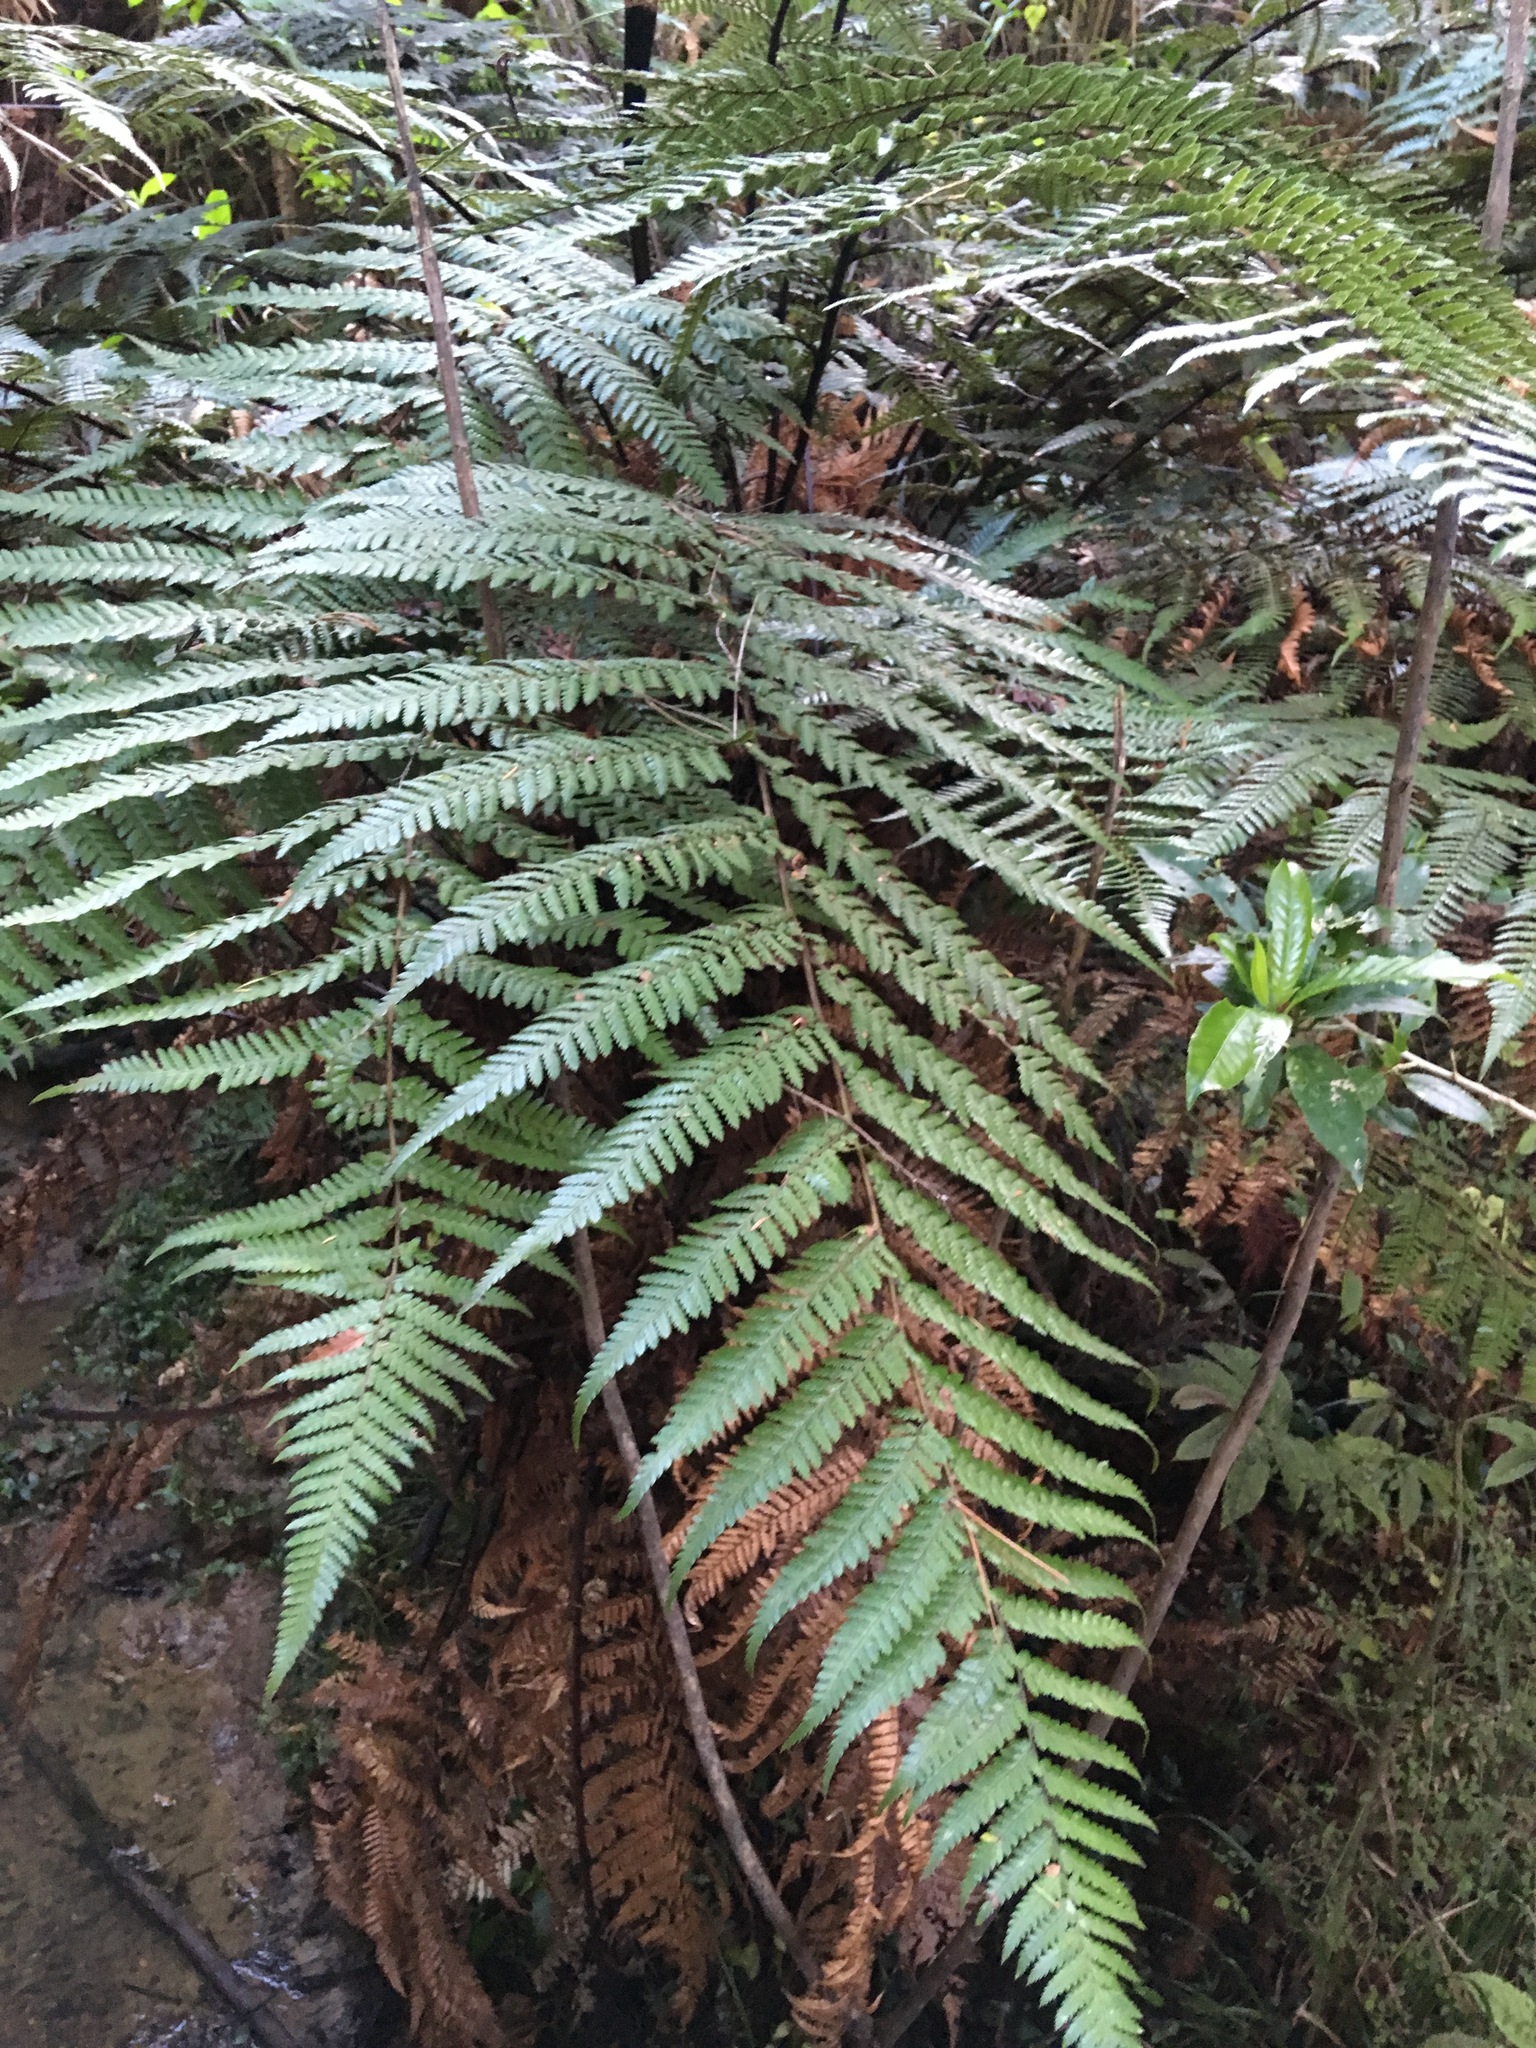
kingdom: Plantae
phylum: Tracheophyta
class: Polypodiopsida
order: Cyatheales
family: Dicksoniaceae
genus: Dicksonia
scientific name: Dicksonia squarrosa
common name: Hard treefern
